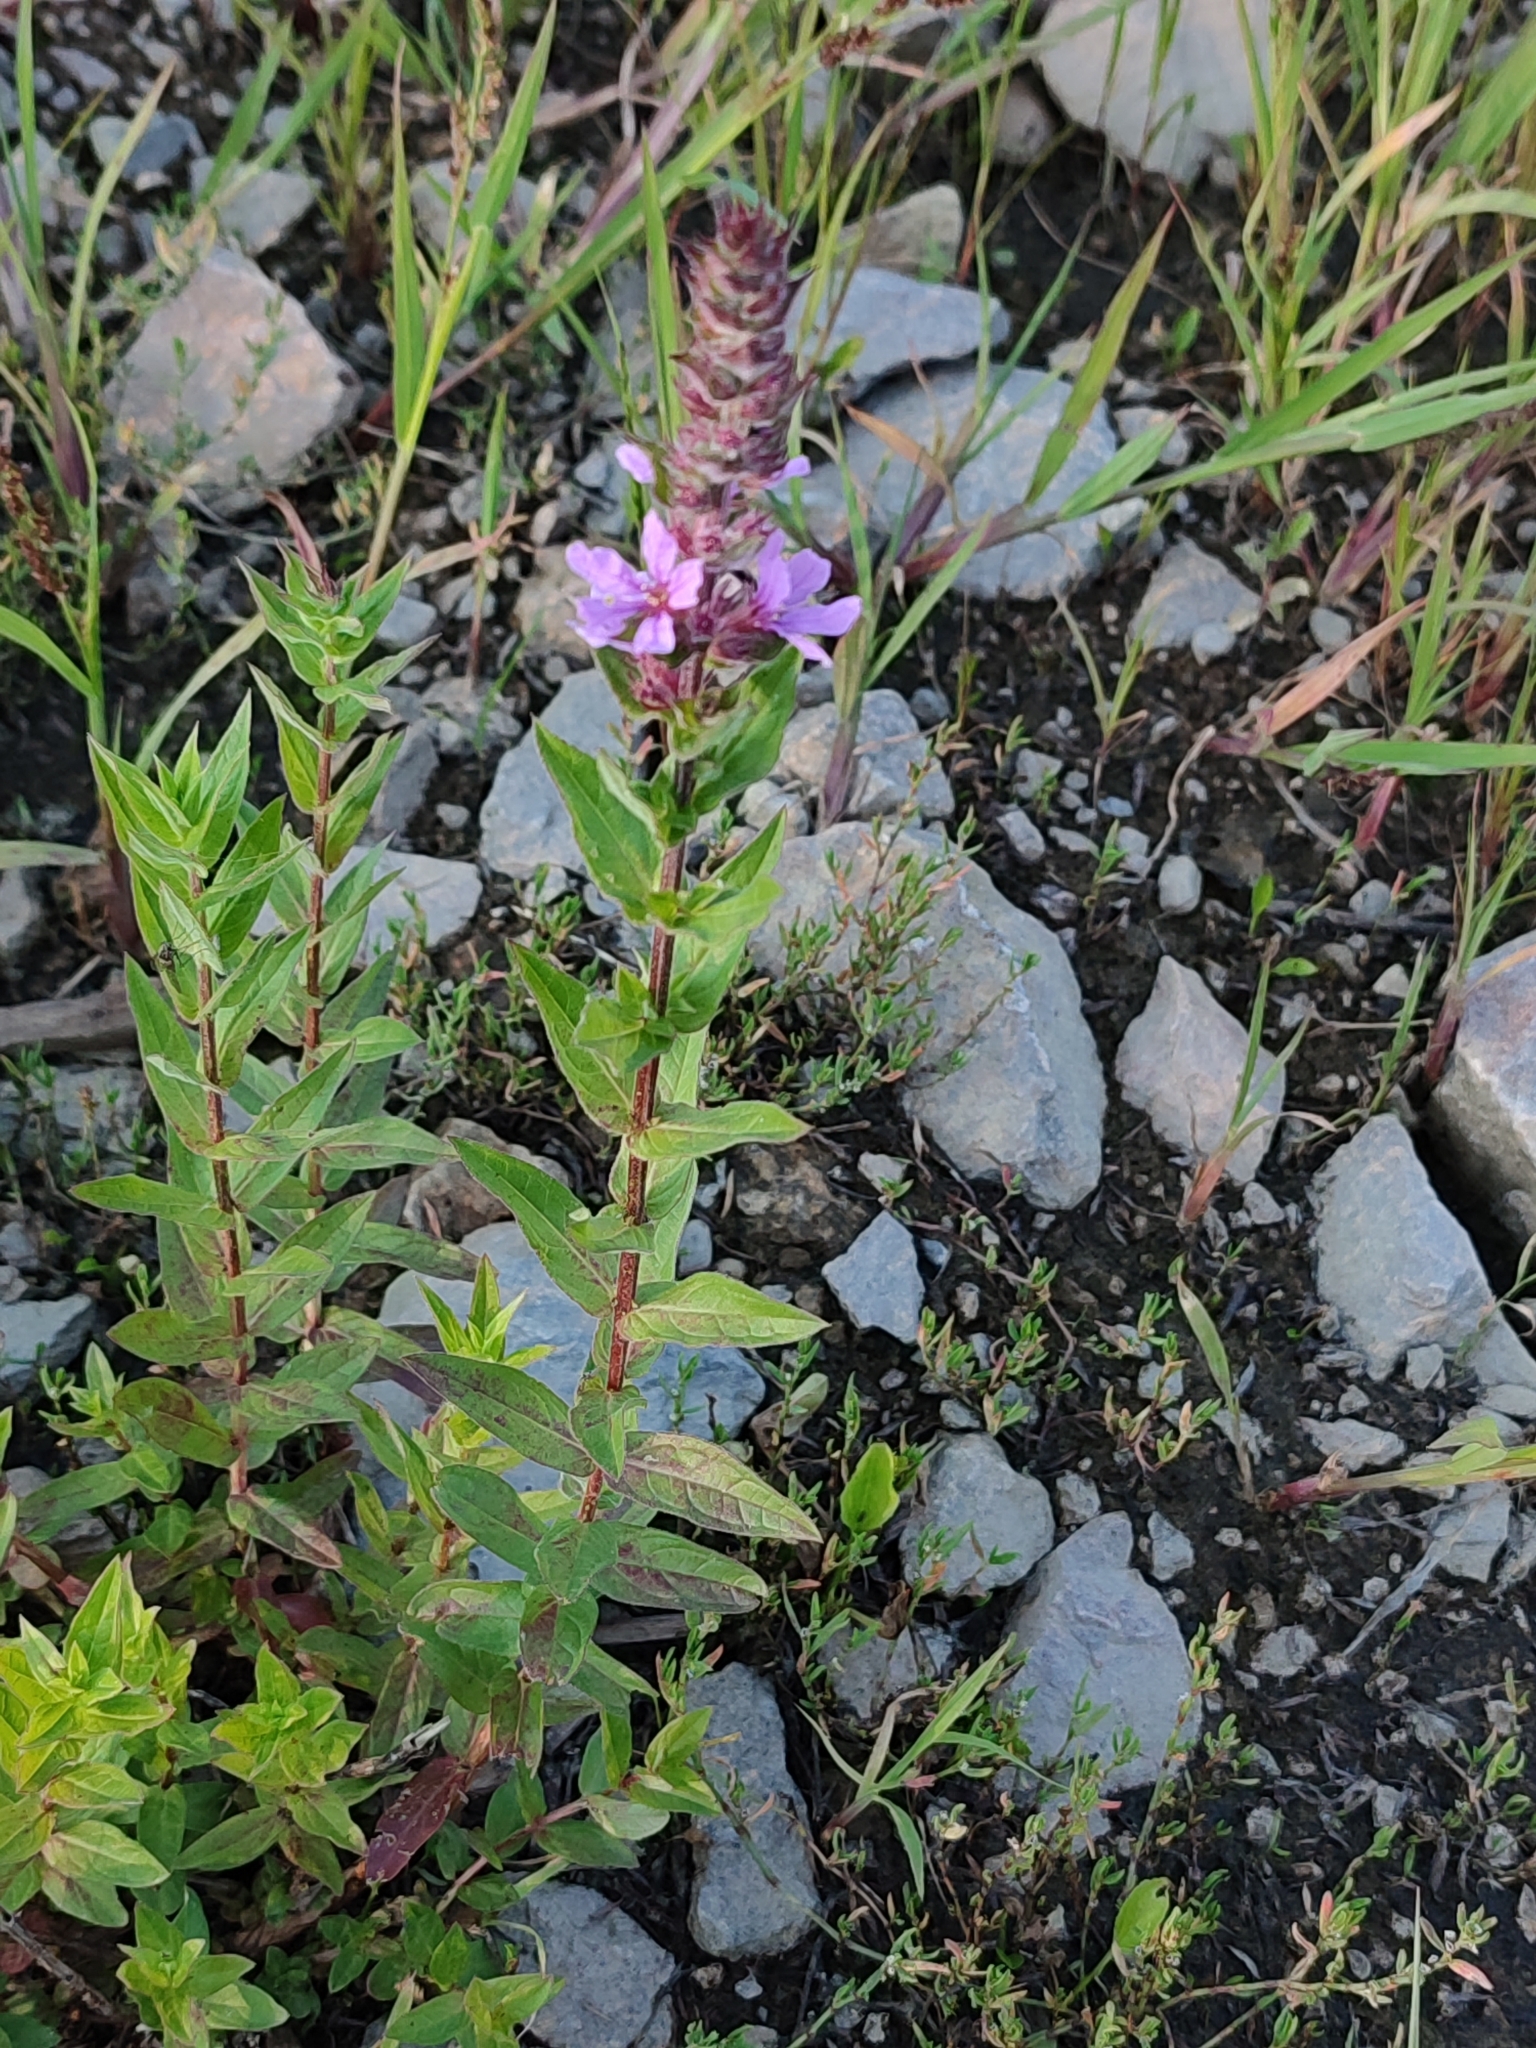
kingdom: Plantae
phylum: Tracheophyta
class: Magnoliopsida
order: Myrtales
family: Lythraceae
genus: Lythrum
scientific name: Lythrum salicaria
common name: Purple loosestrife
